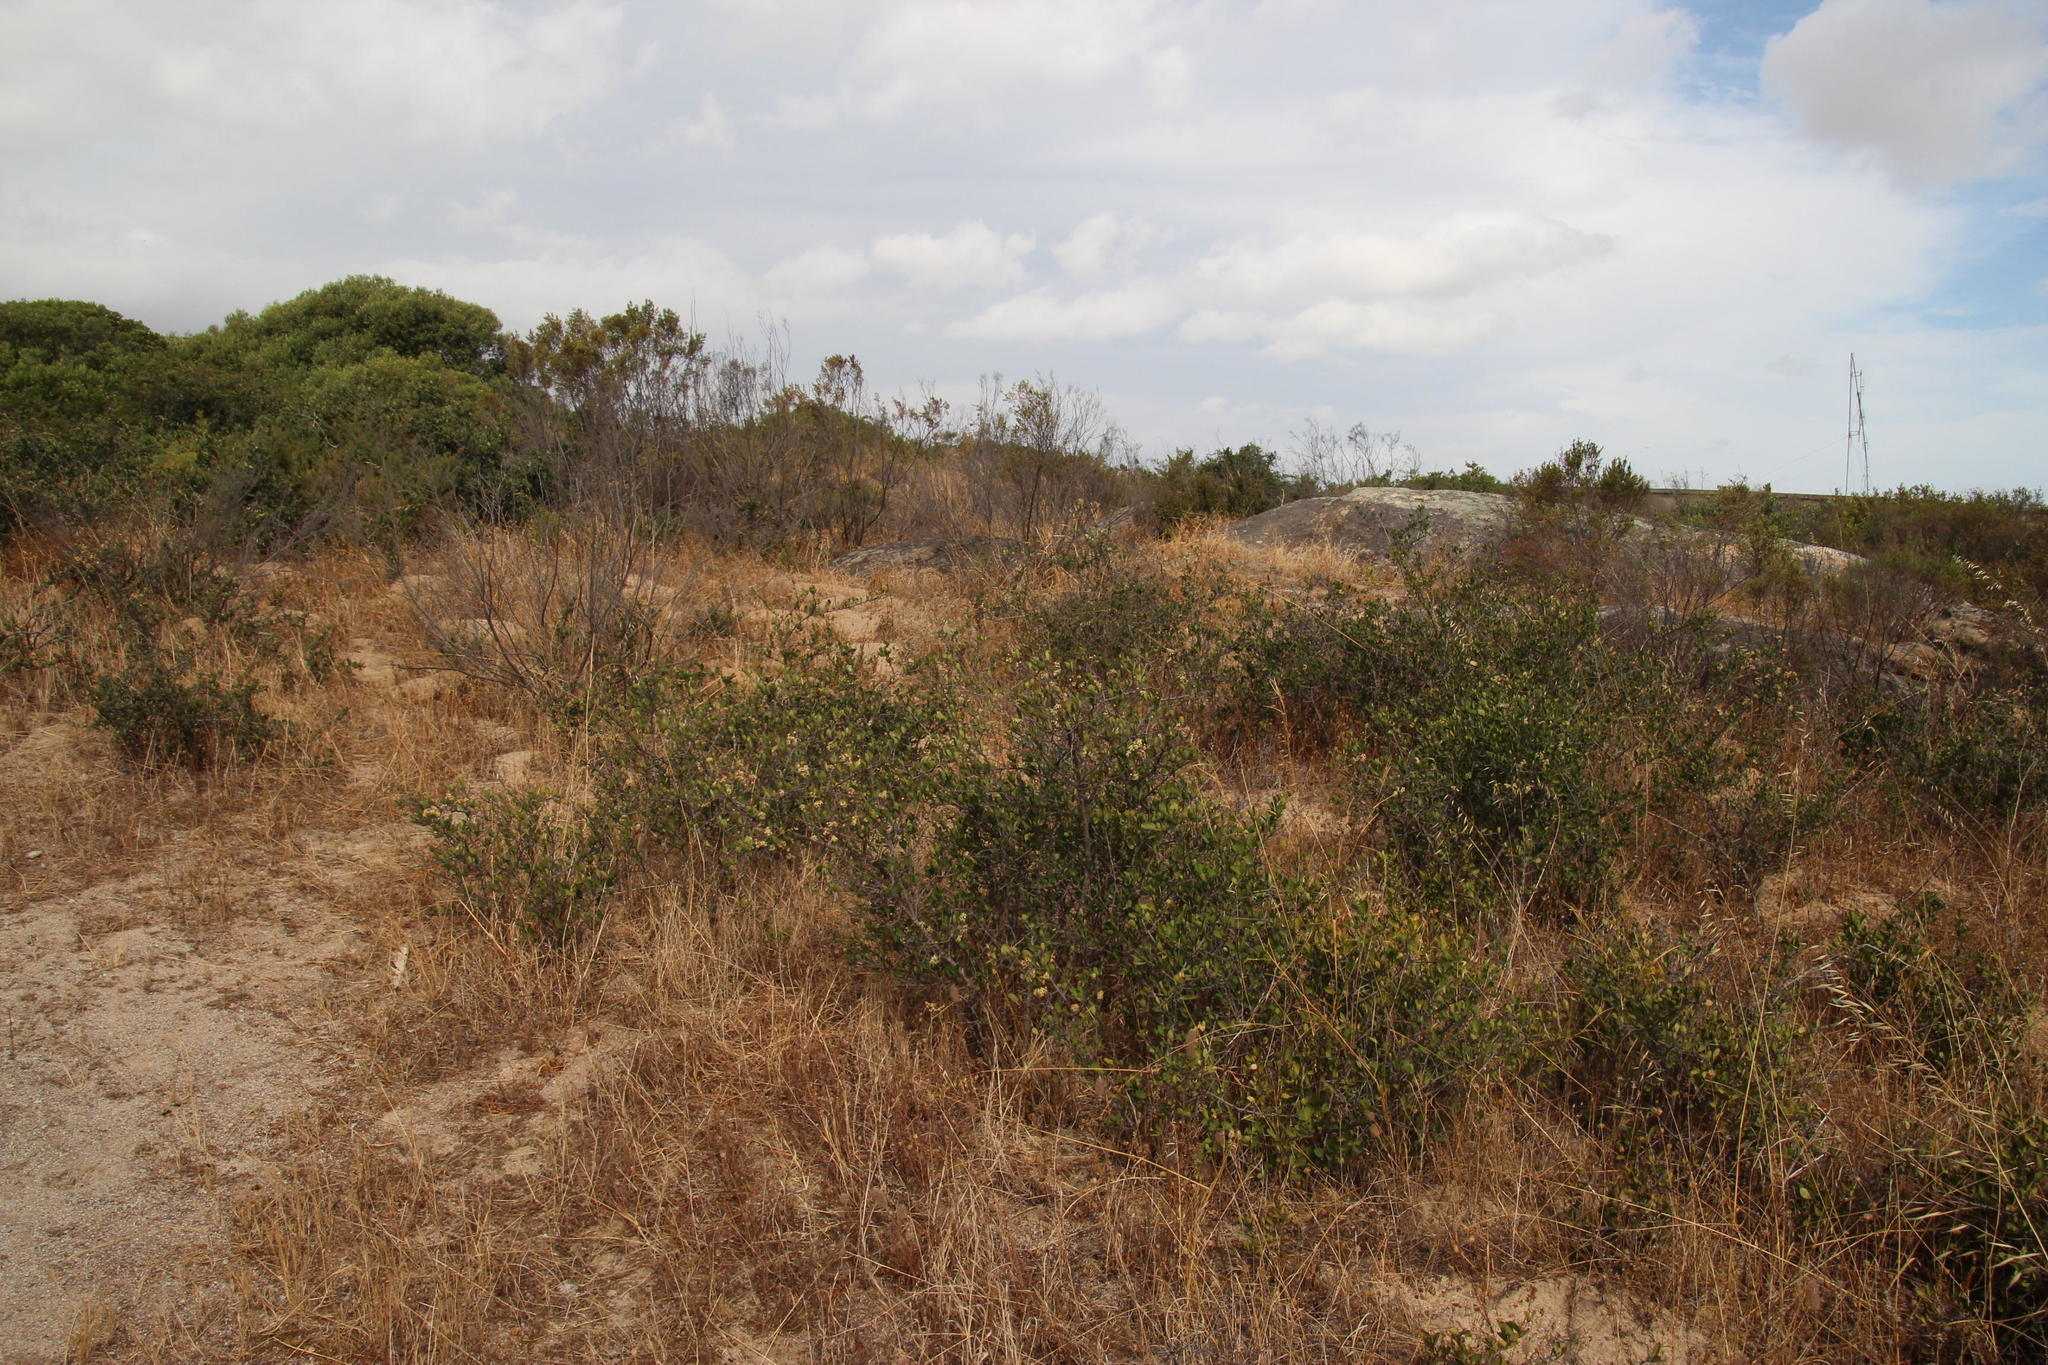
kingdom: Plantae
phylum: Tracheophyta
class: Magnoliopsida
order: Celastrales
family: Celastraceae
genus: Putterlickia
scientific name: Putterlickia pyracantha
